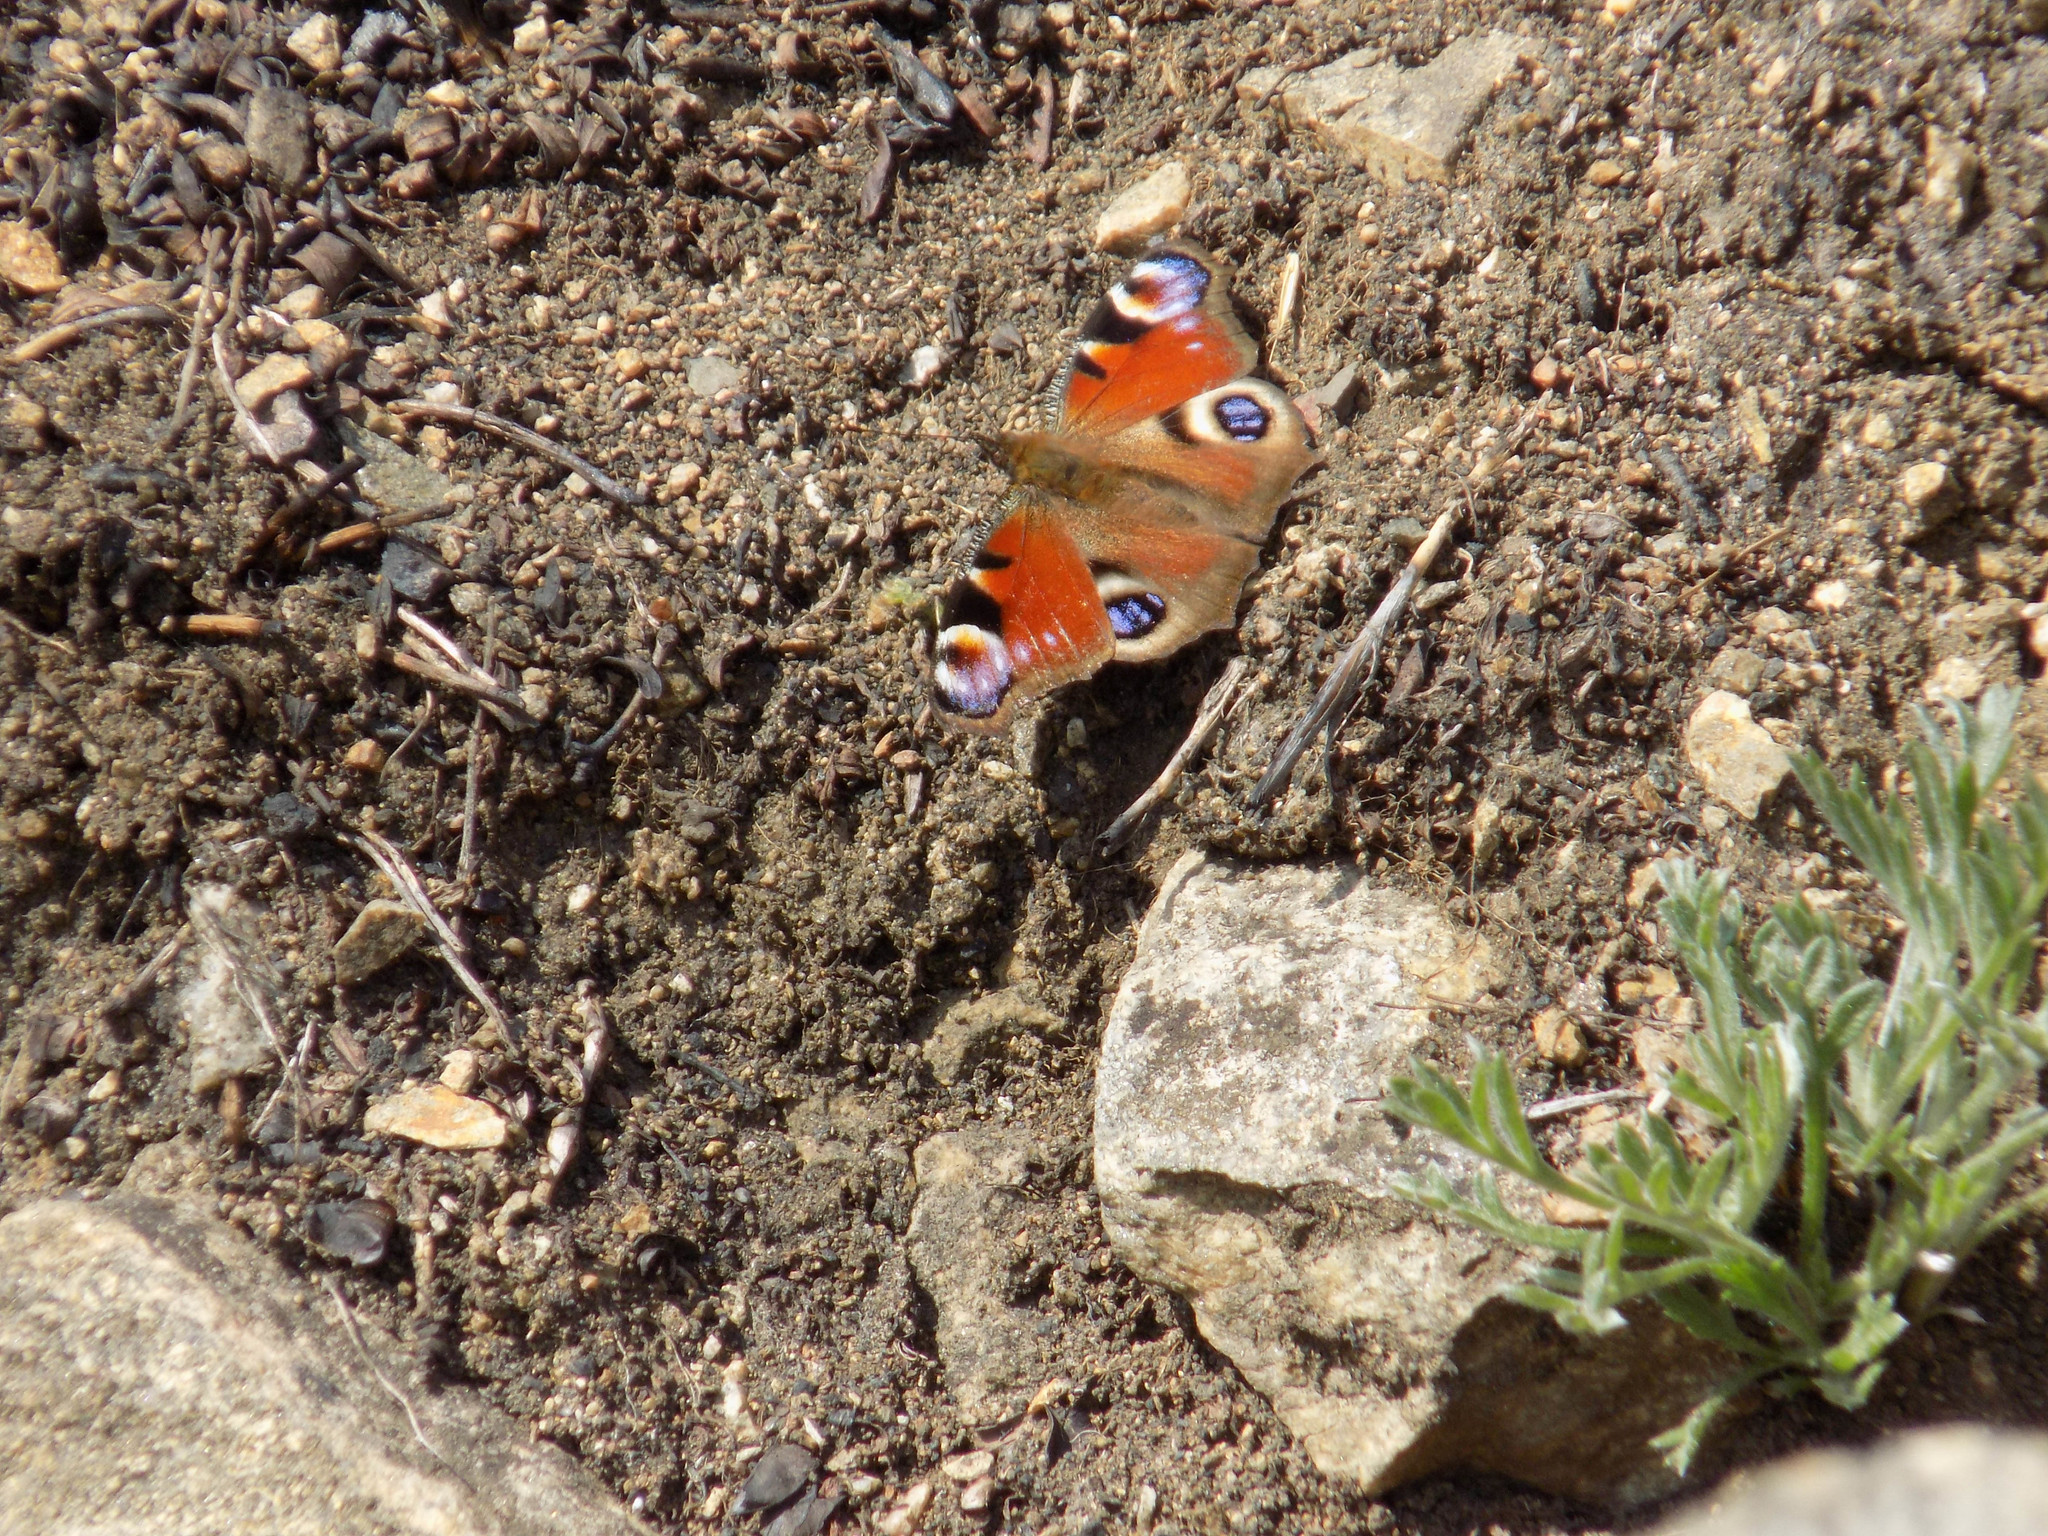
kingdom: Animalia
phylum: Arthropoda
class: Insecta
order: Lepidoptera
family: Nymphalidae
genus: Aglais
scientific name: Aglais io
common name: Peacock
